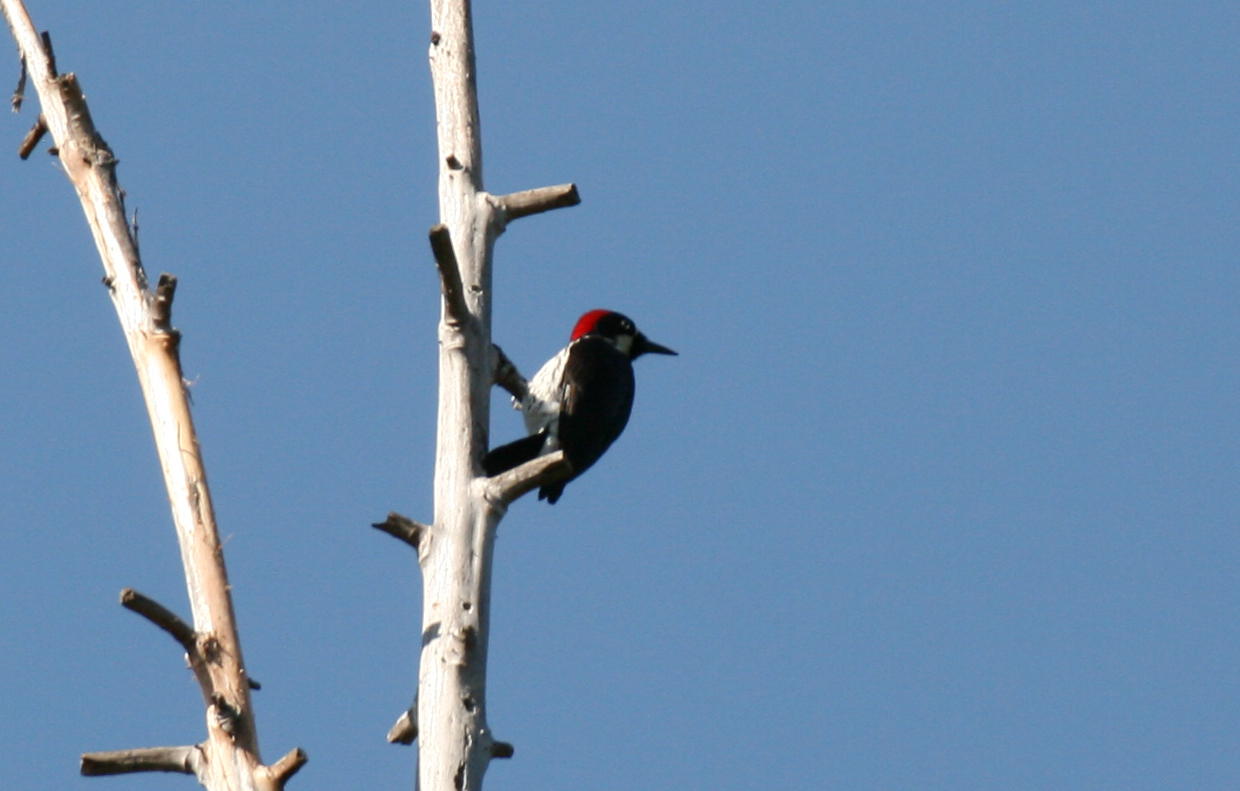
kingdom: Animalia
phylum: Chordata
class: Aves
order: Piciformes
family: Picidae
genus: Melanerpes
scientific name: Melanerpes formicivorus
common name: Acorn woodpecker
